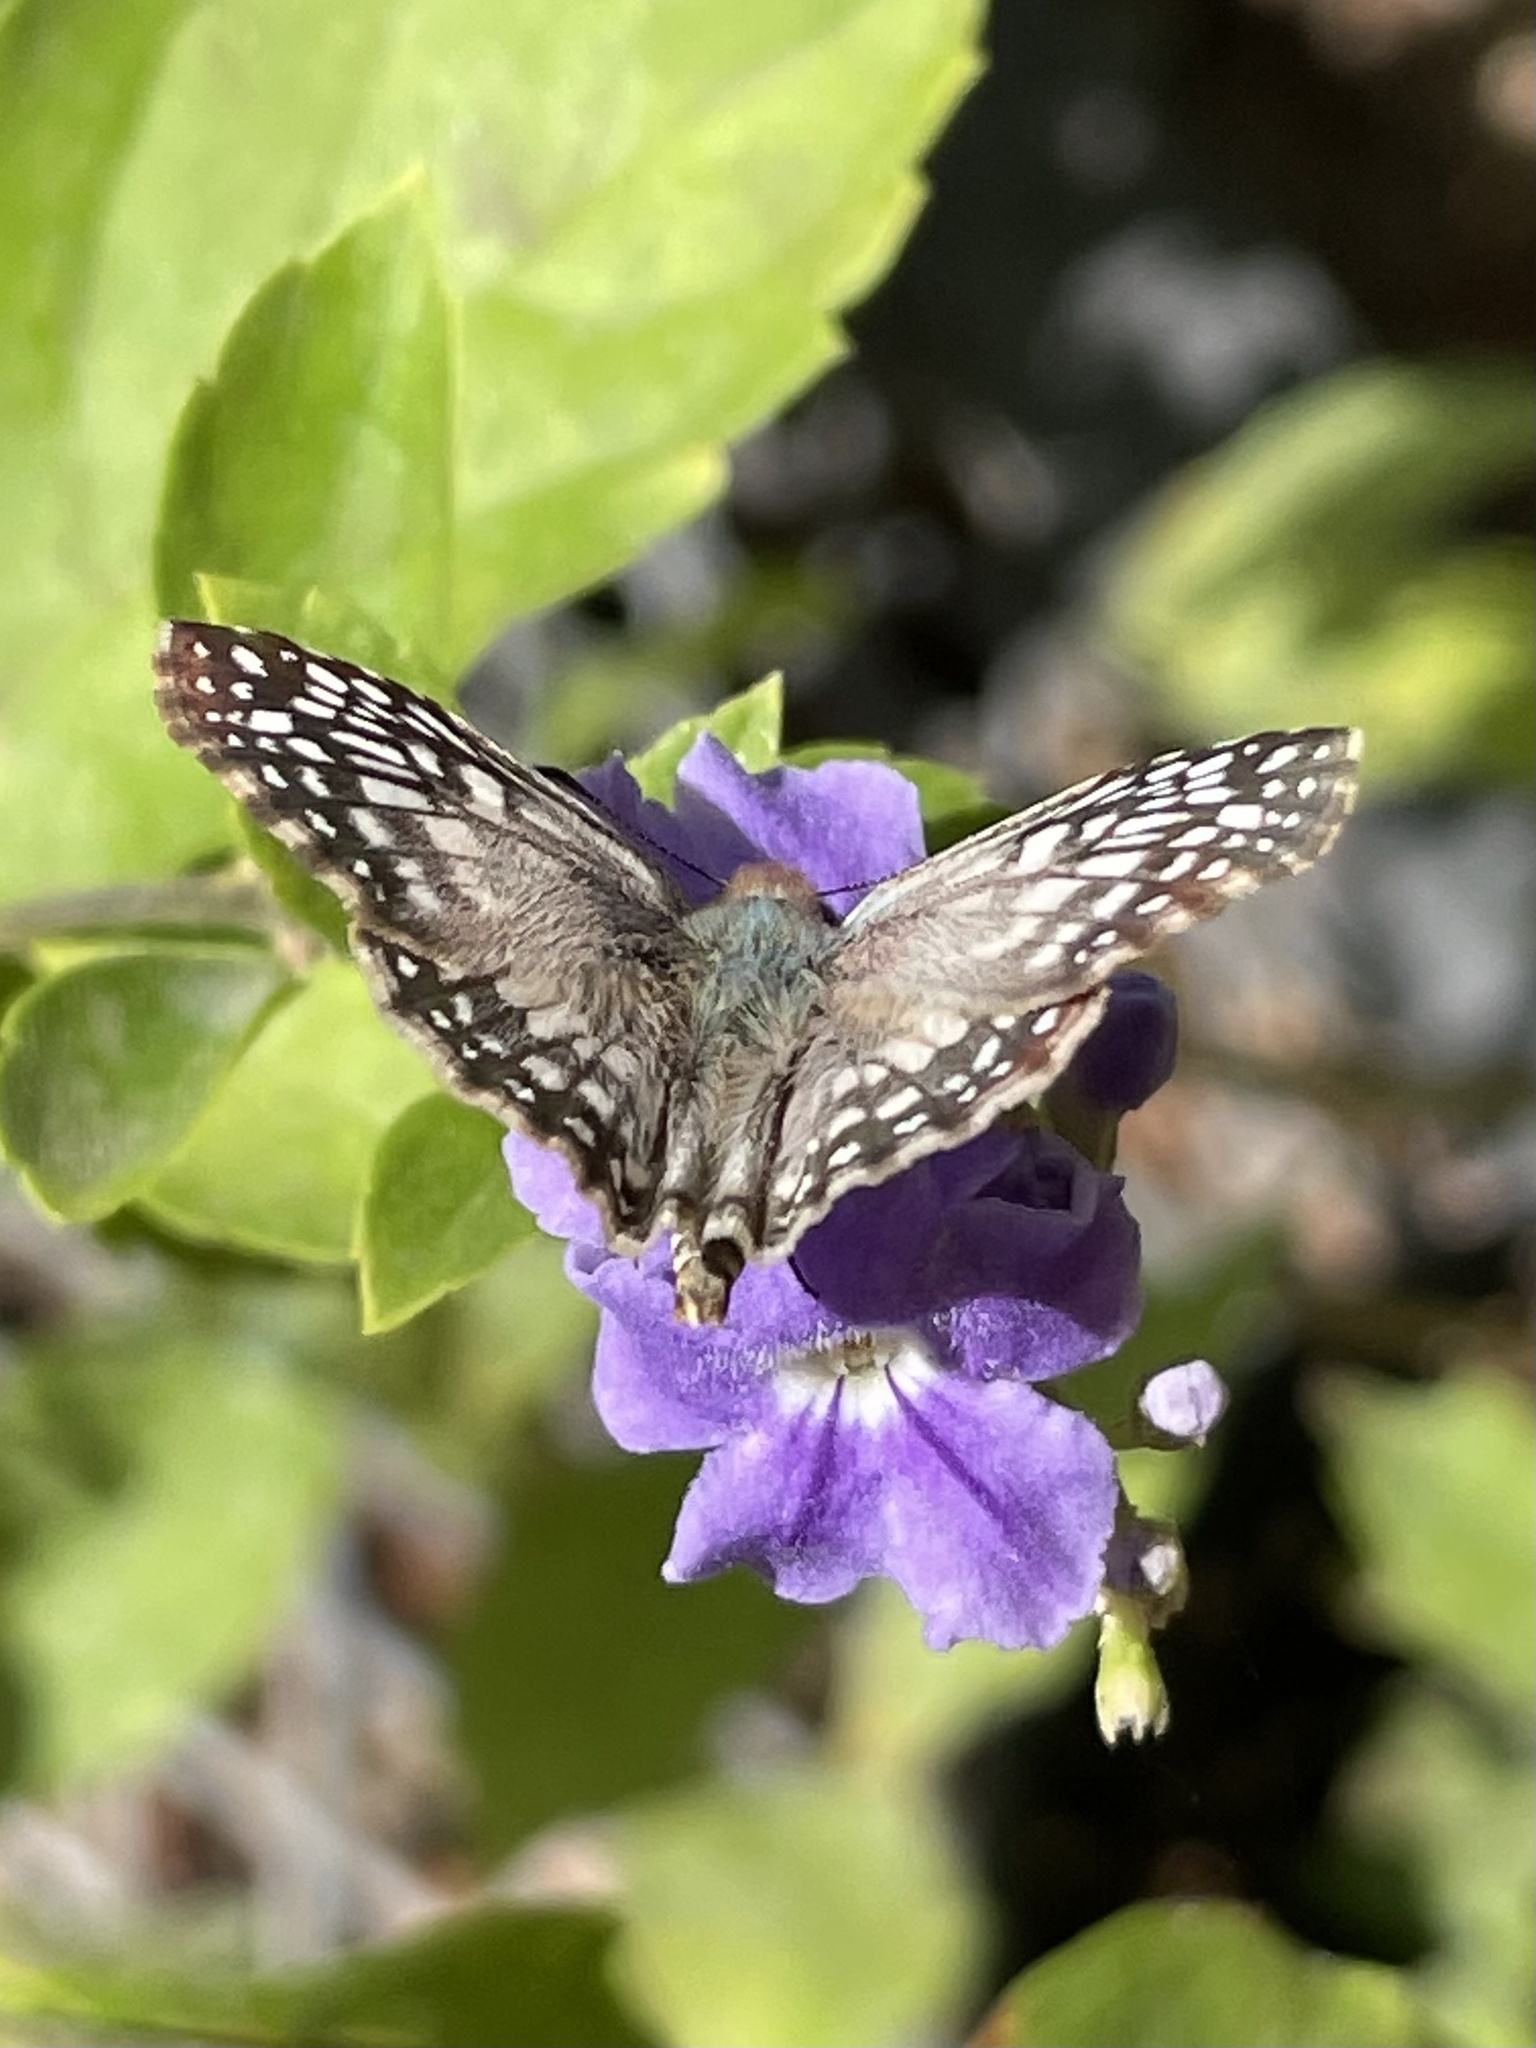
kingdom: Animalia
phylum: Arthropoda
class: Insecta
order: Lepidoptera
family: Hesperiidae
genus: Pyrgus
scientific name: Pyrgus oileus
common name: Tropical checkered-skipper
